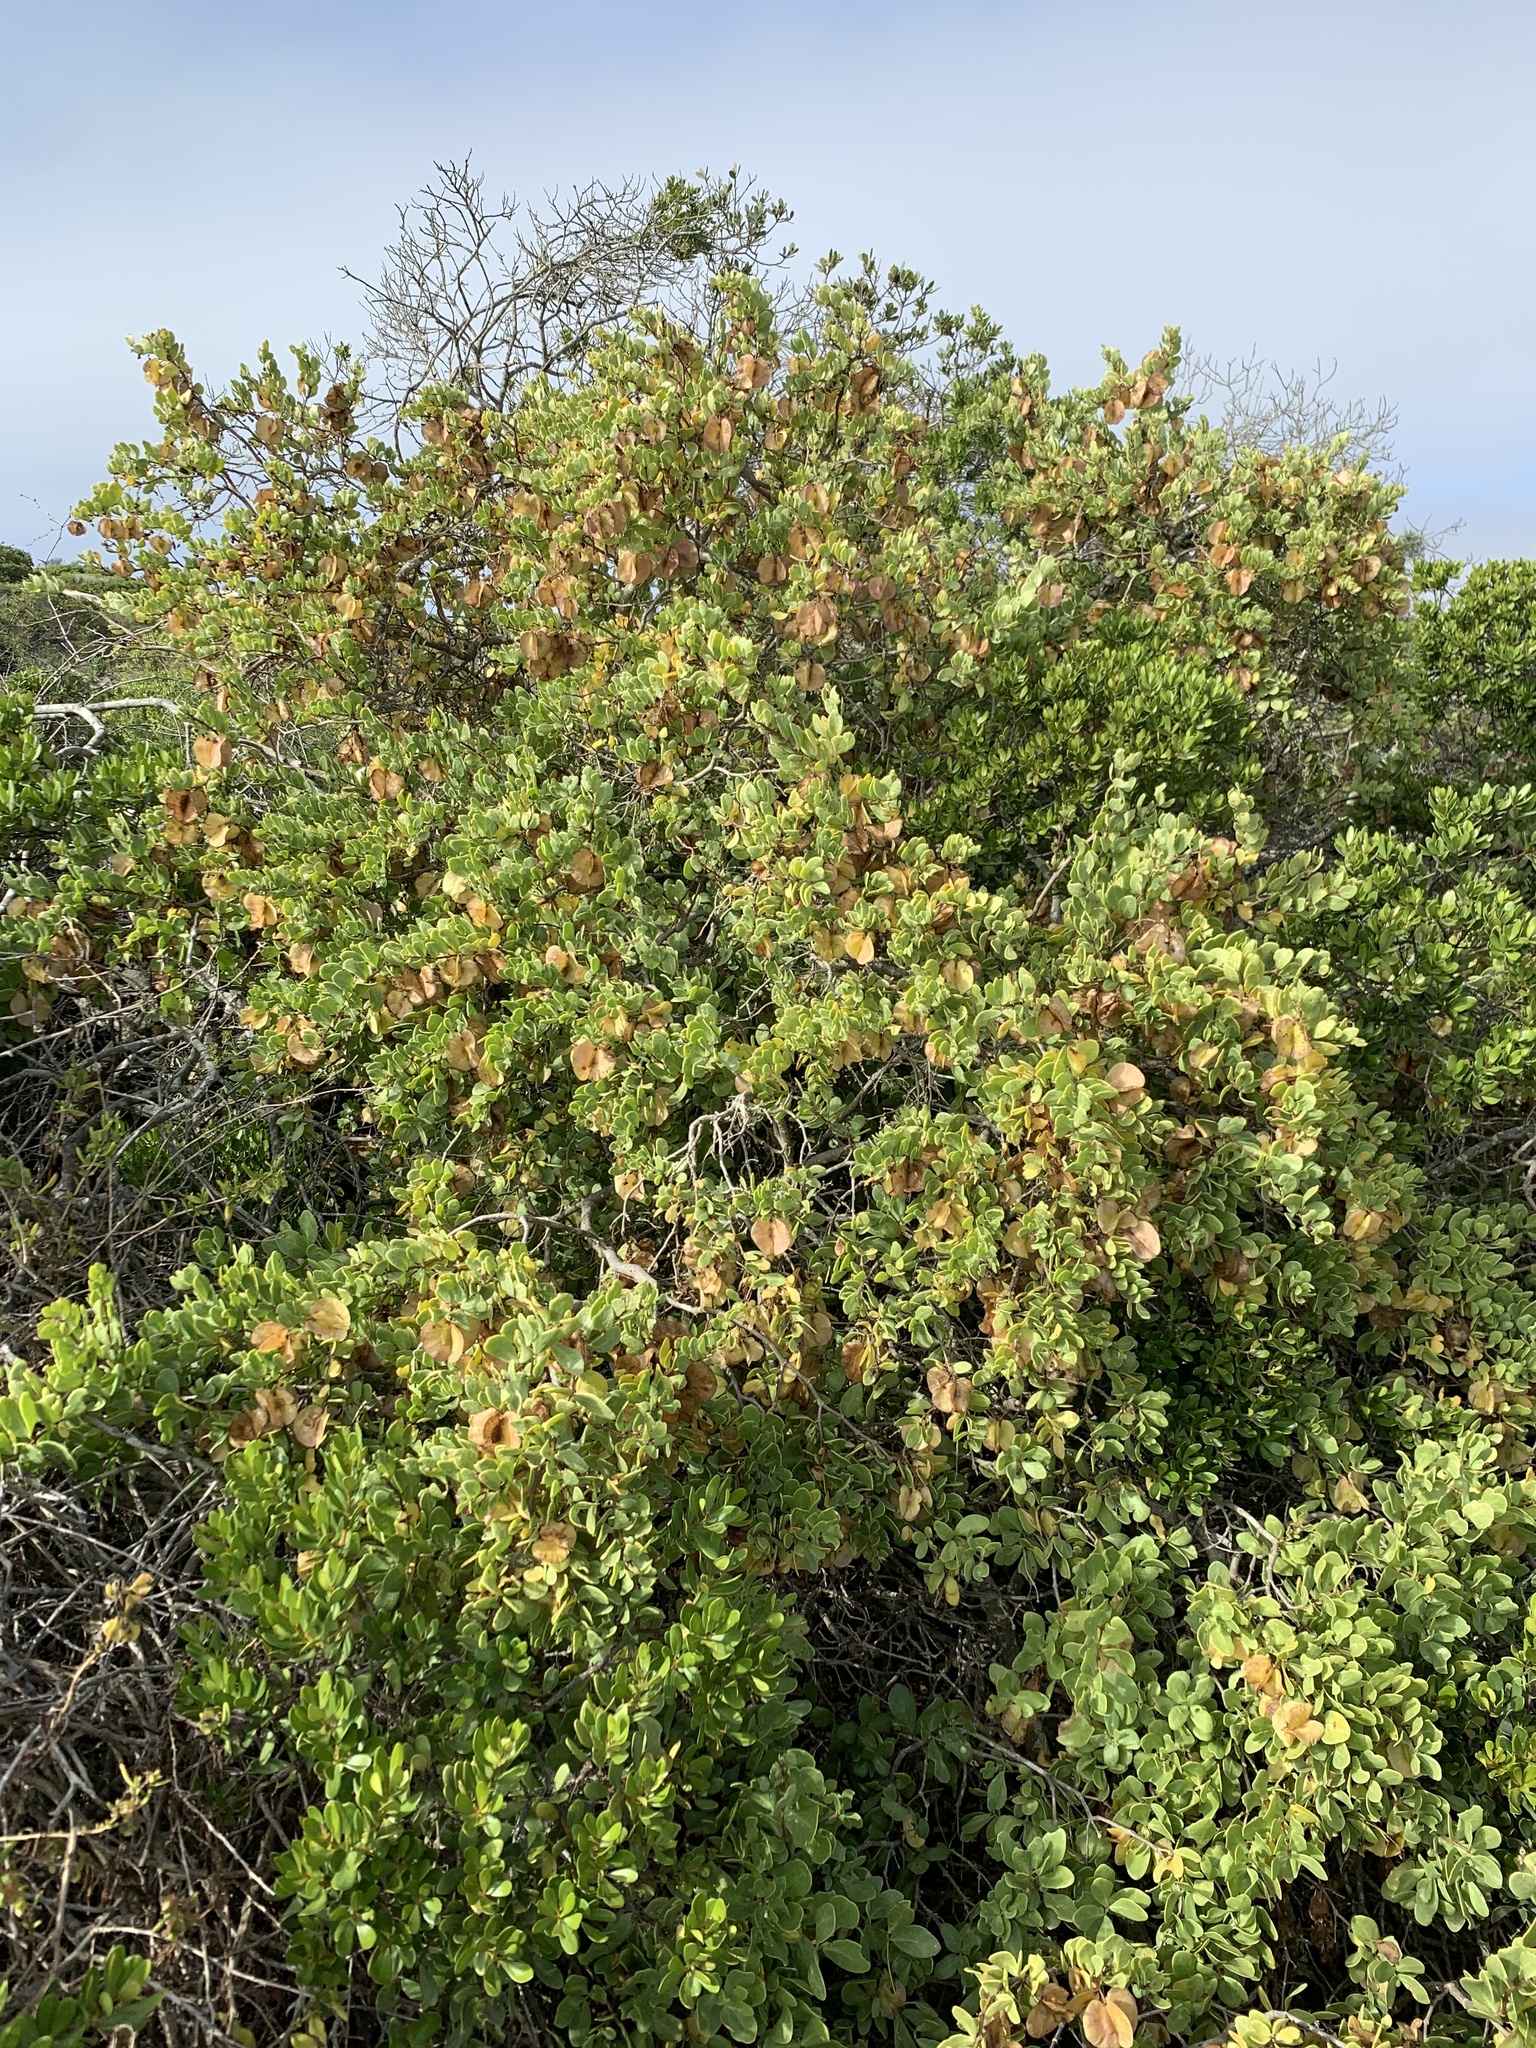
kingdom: Plantae
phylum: Tracheophyta
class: Magnoliopsida
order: Zygophyllales
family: Zygophyllaceae
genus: Roepera
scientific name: Roepera morgsana
